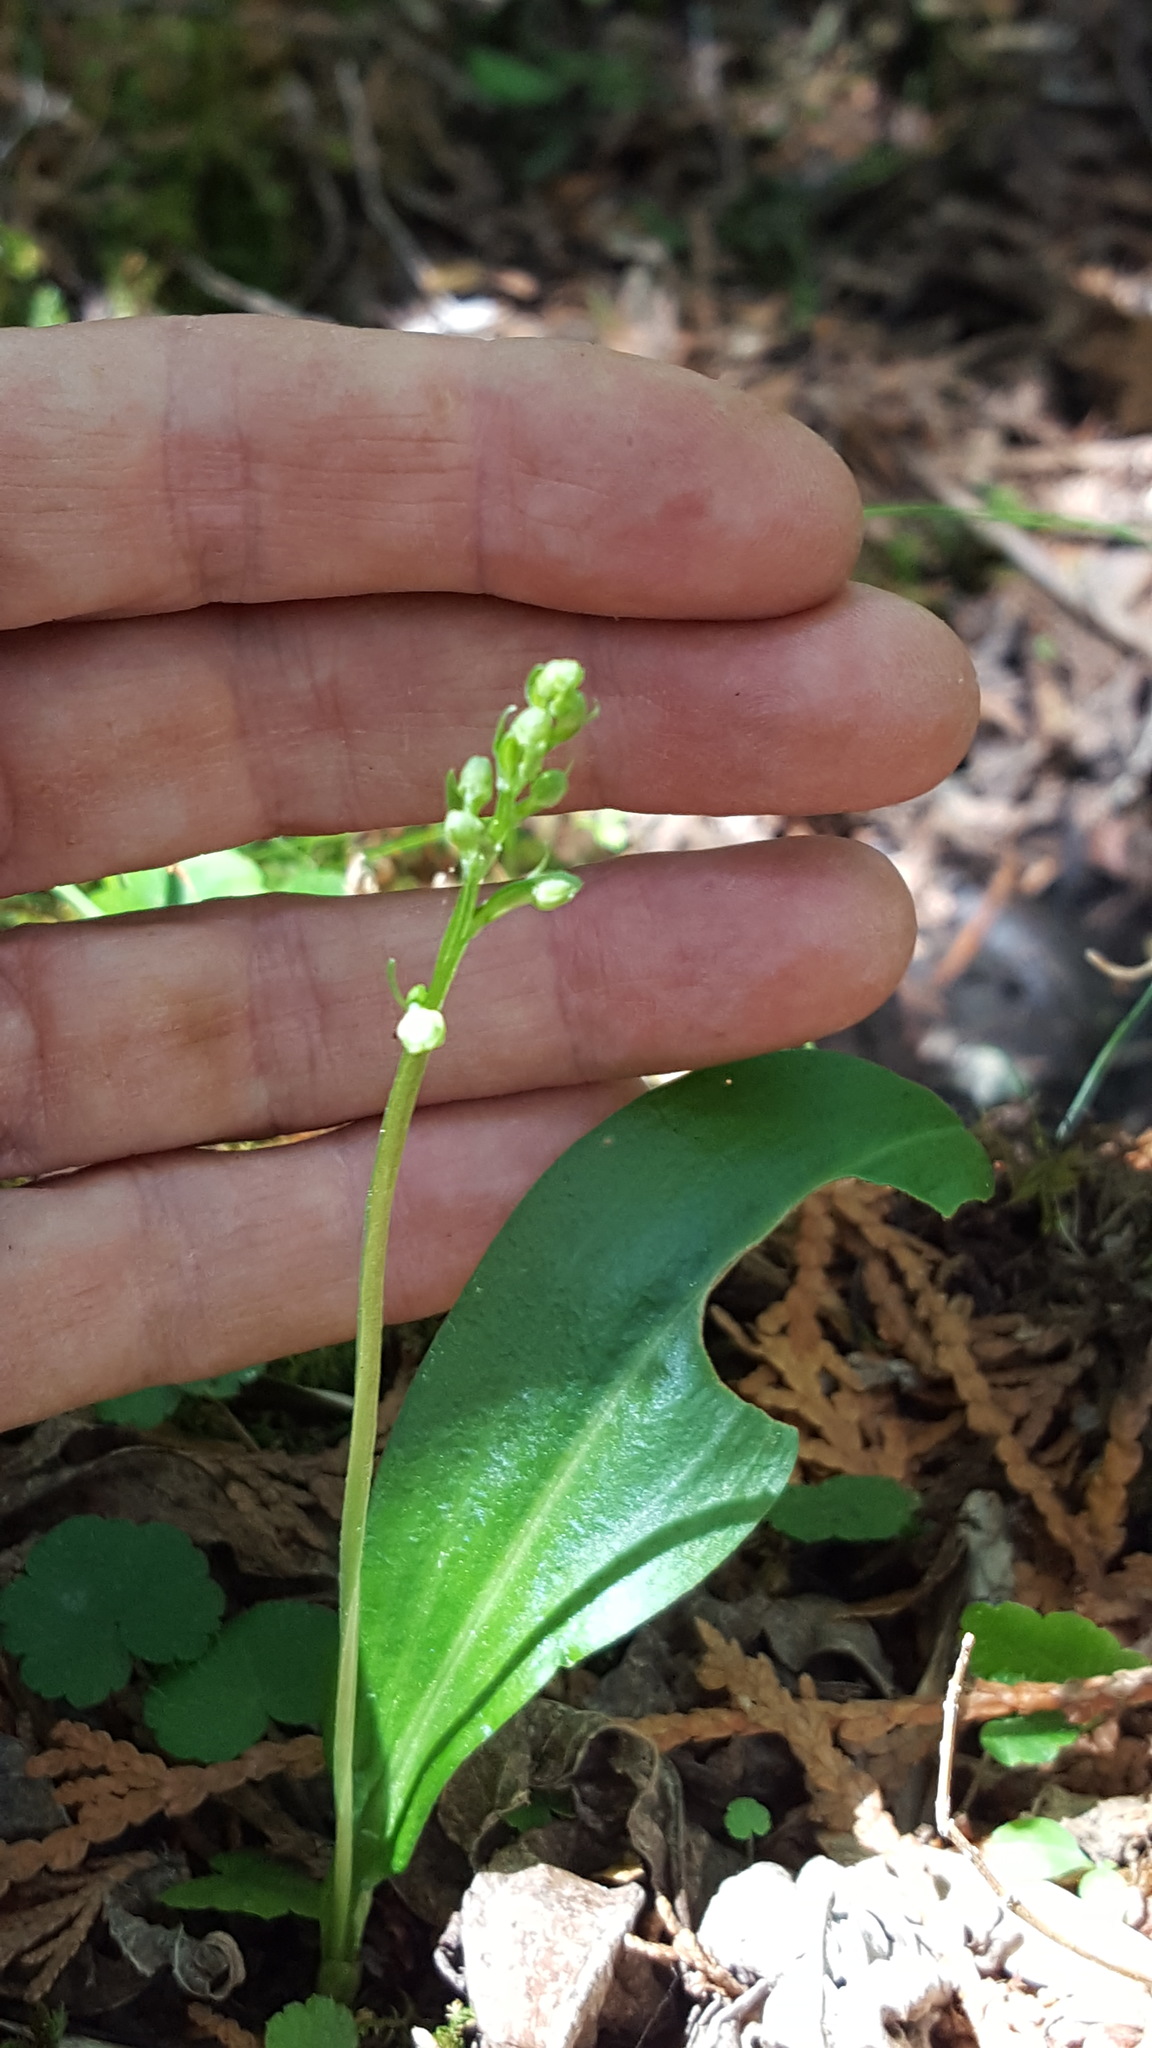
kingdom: Plantae
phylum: Tracheophyta
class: Liliopsida
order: Asparagales
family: Orchidaceae
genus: Platanthera
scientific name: Platanthera obtusata
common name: Blunt bog orchid
